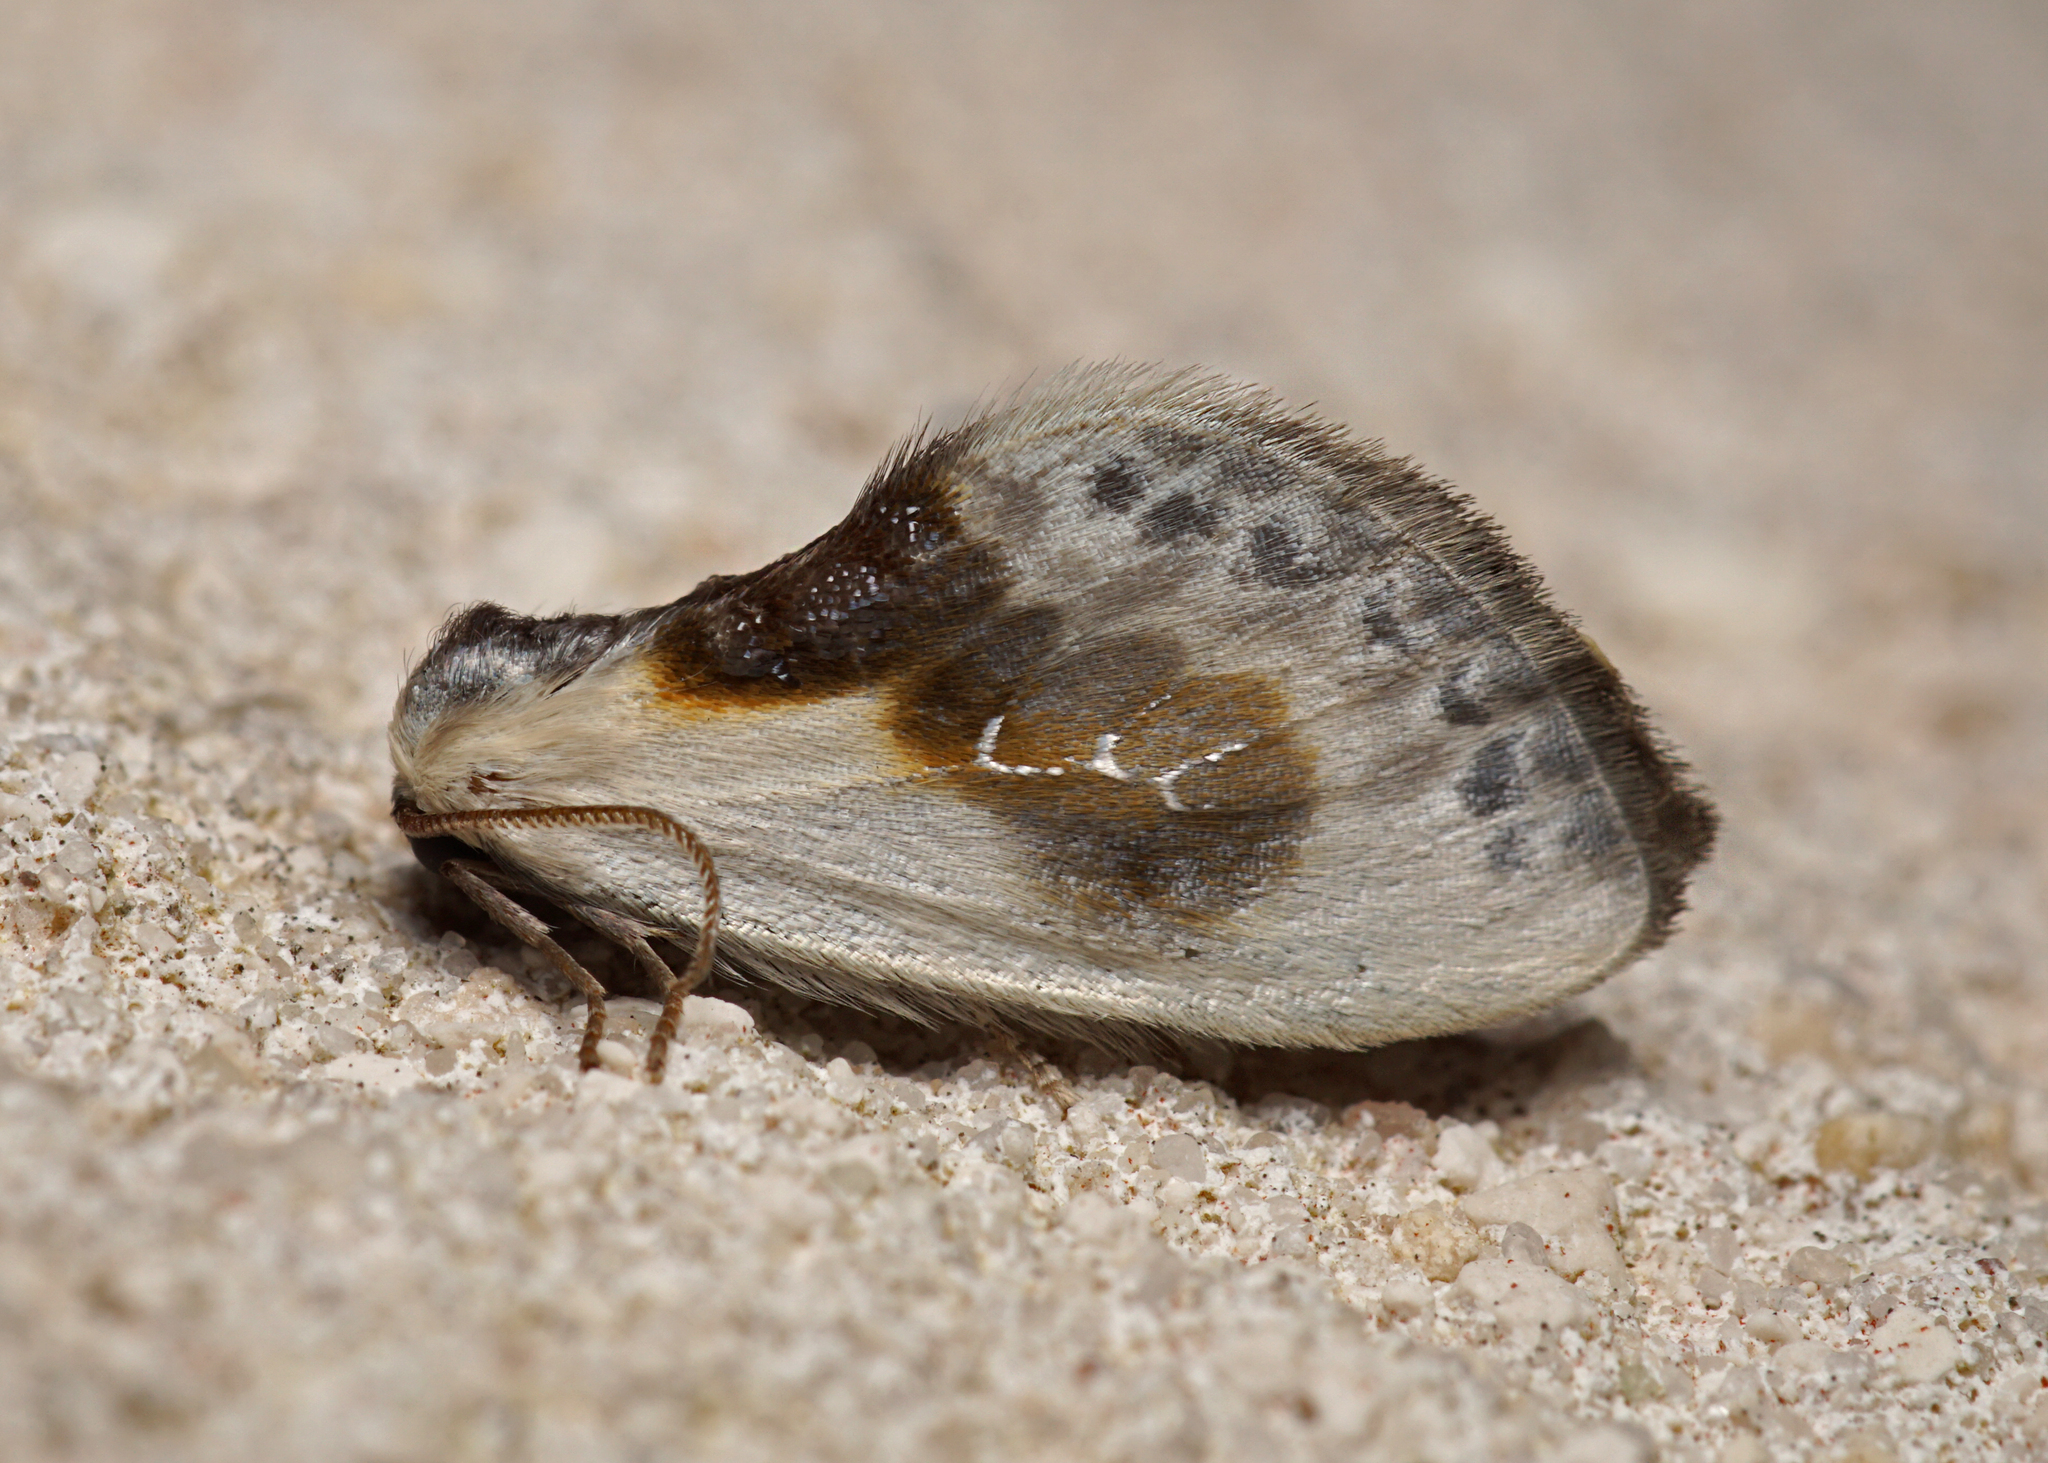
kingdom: Animalia
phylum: Arthropoda
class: Insecta
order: Lepidoptera
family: Drepanidae
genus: Cilix
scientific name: Cilix glaucata
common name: Chinese character
